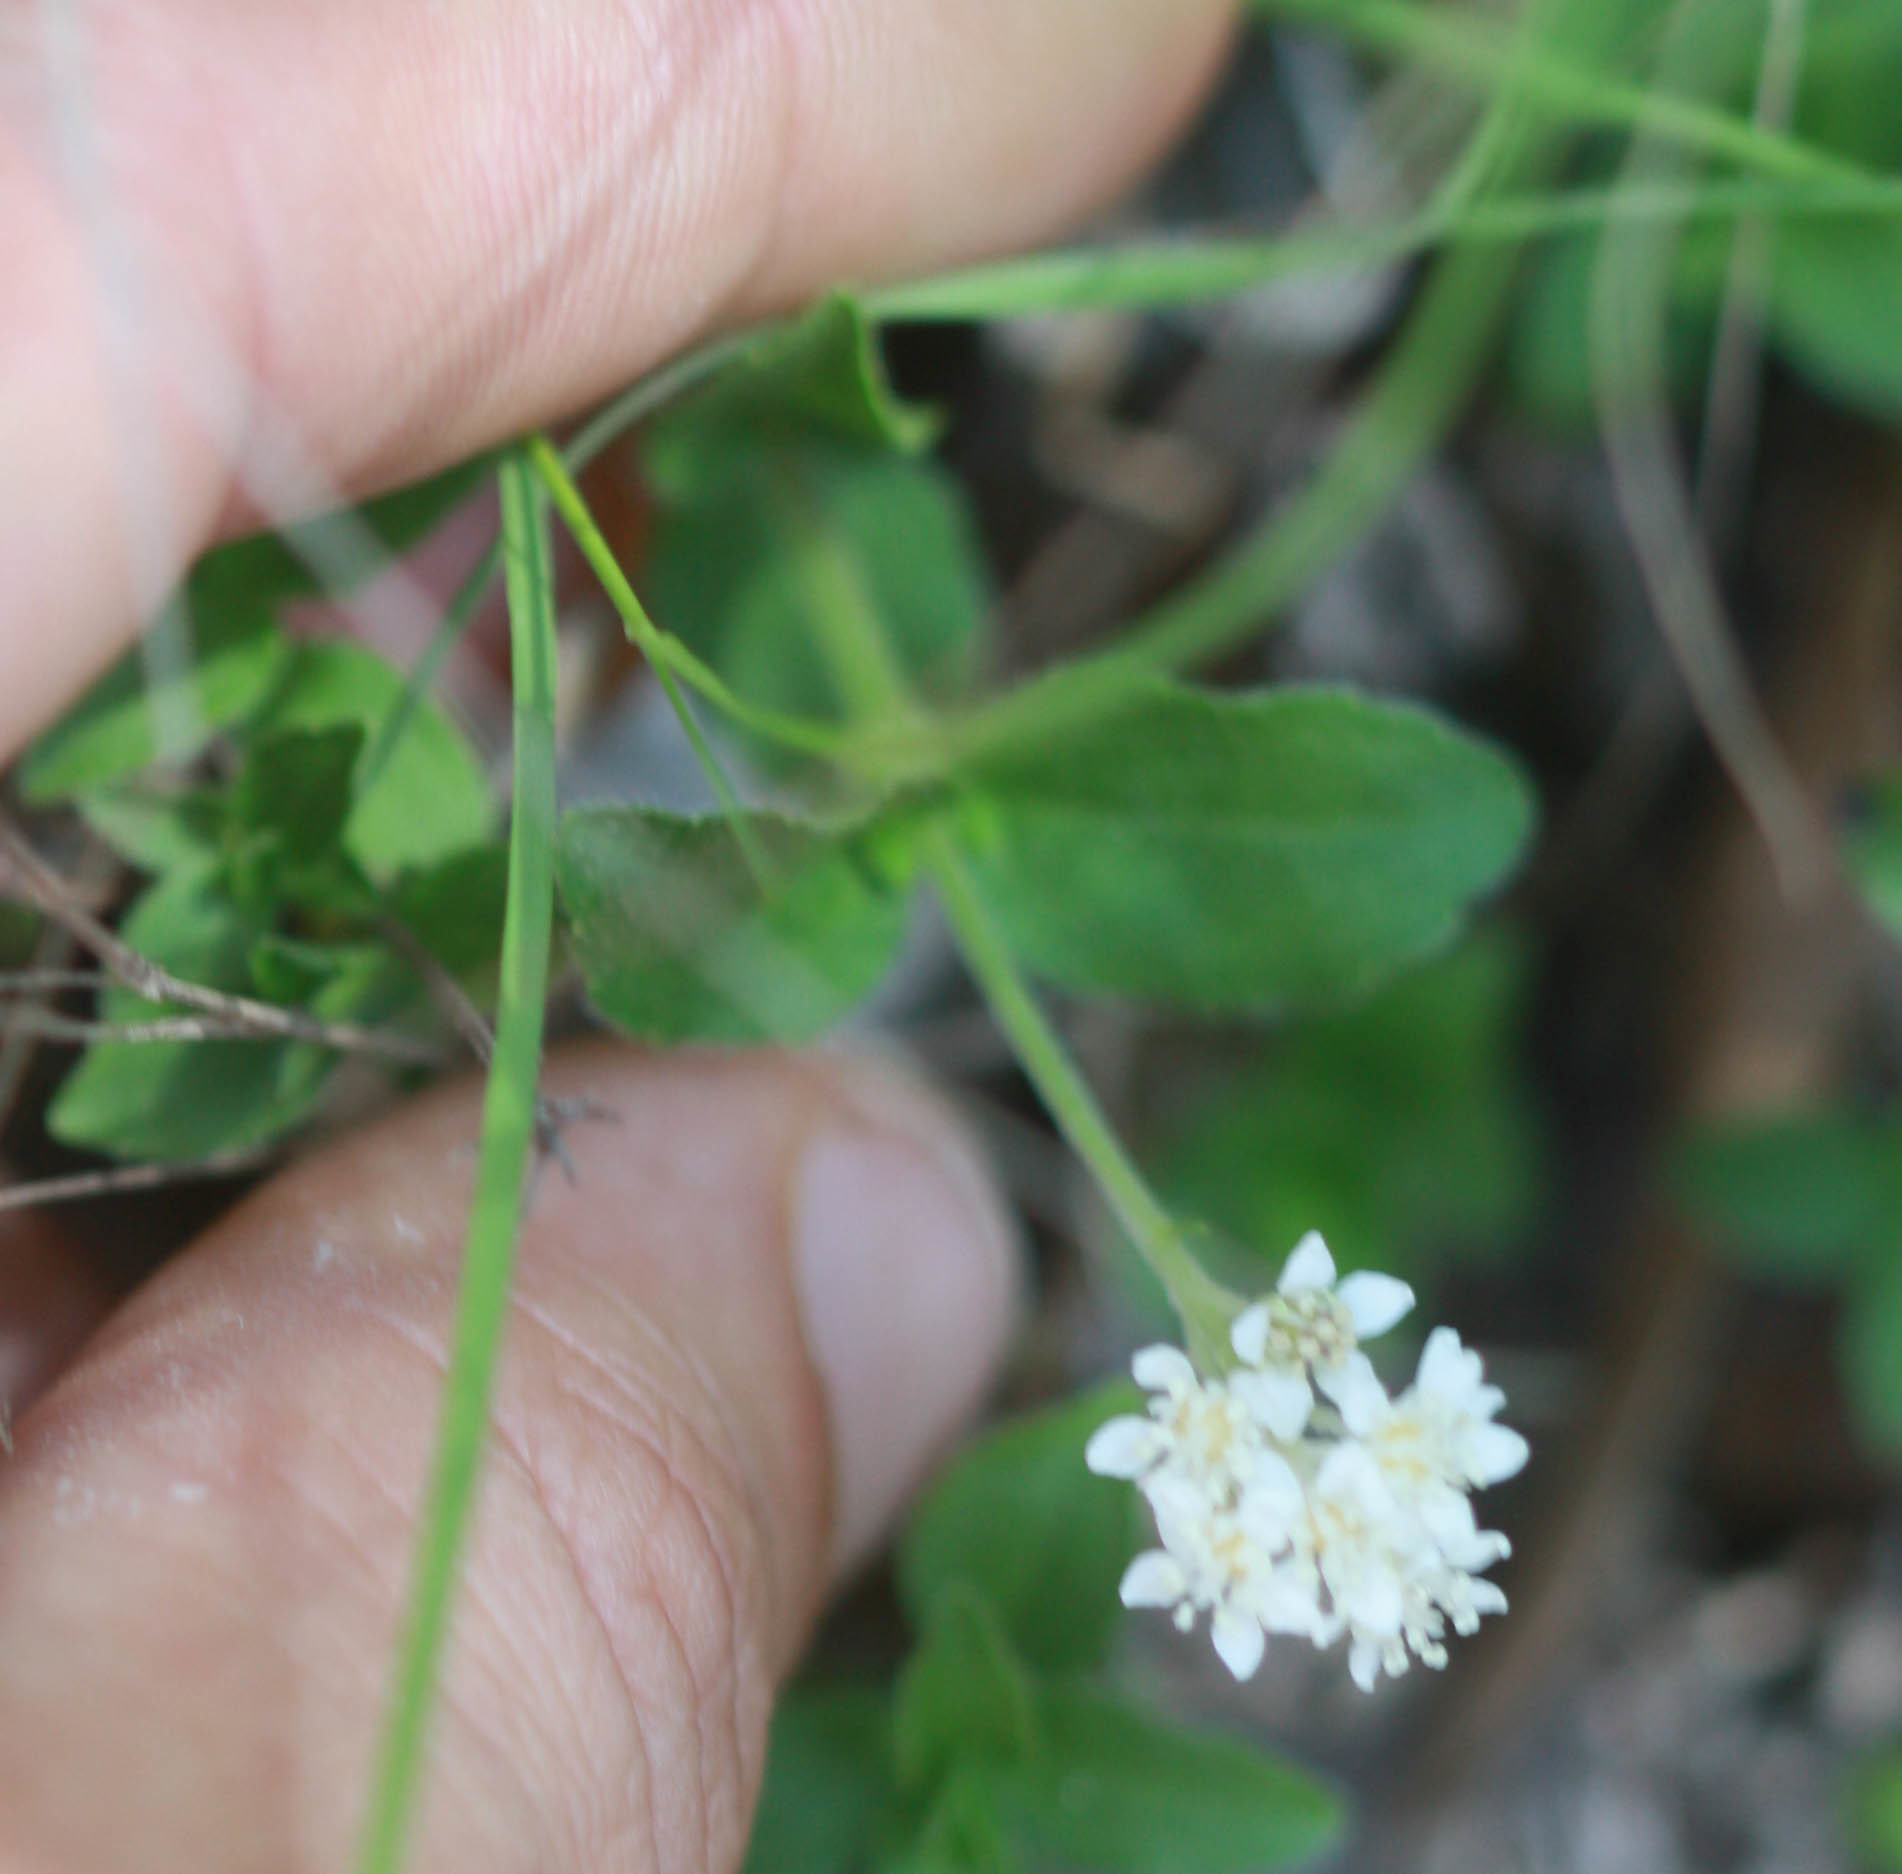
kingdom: Plantae
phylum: Tracheophyta
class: Magnoliopsida
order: Cornales
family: Hydrangeaceae
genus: Whipplea
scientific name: Whipplea modesta
